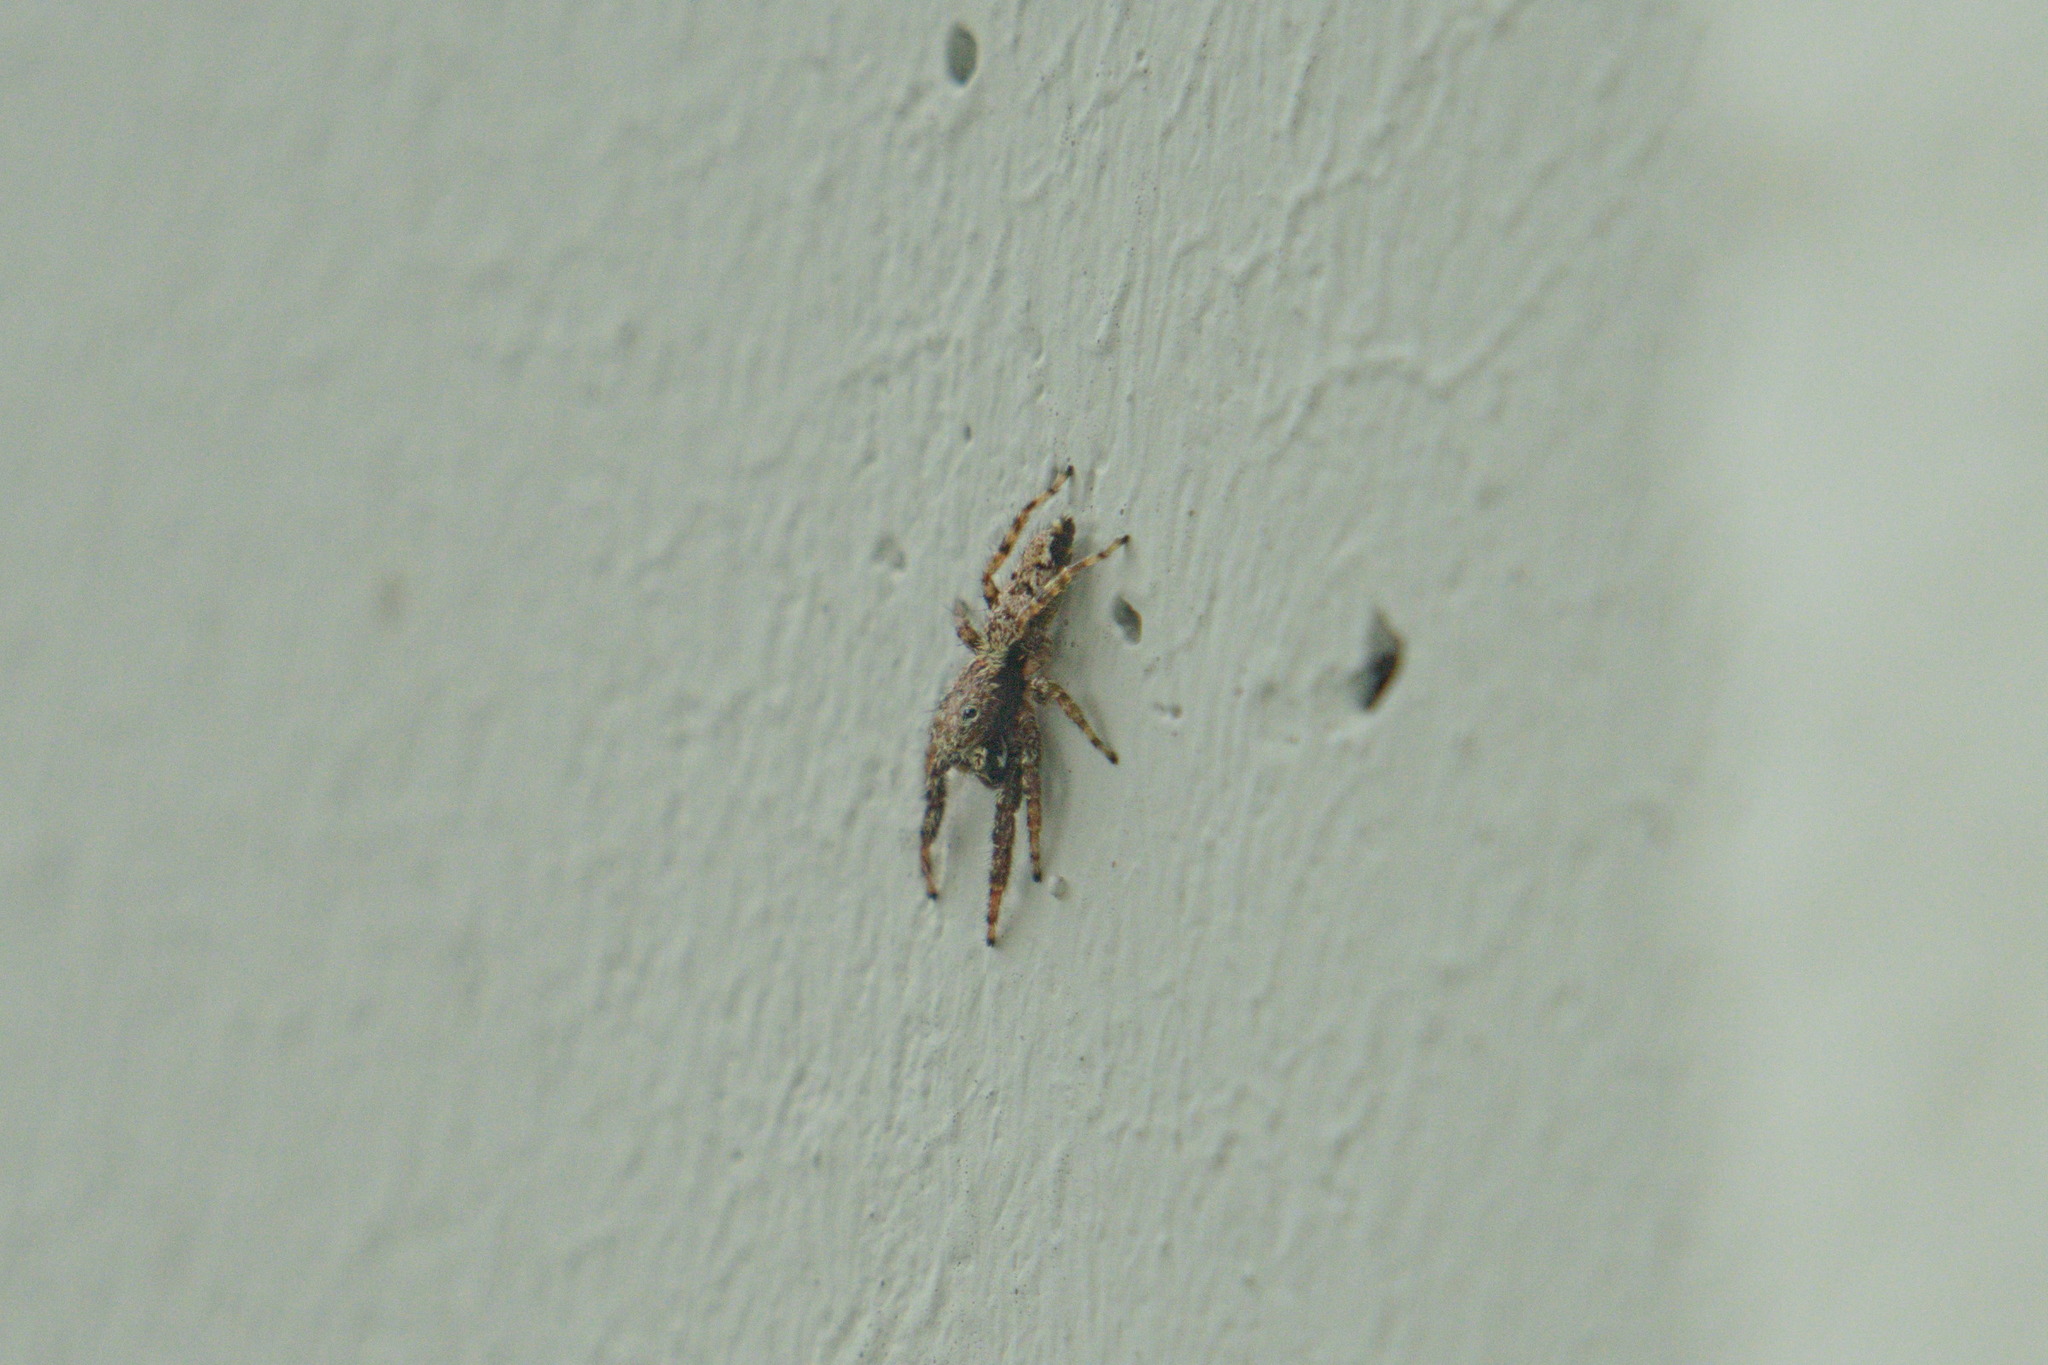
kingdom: Animalia
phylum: Arthropoda
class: Arachnida
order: Araneae
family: Salticidae
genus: Marpissa
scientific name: Marpissa muscosa
